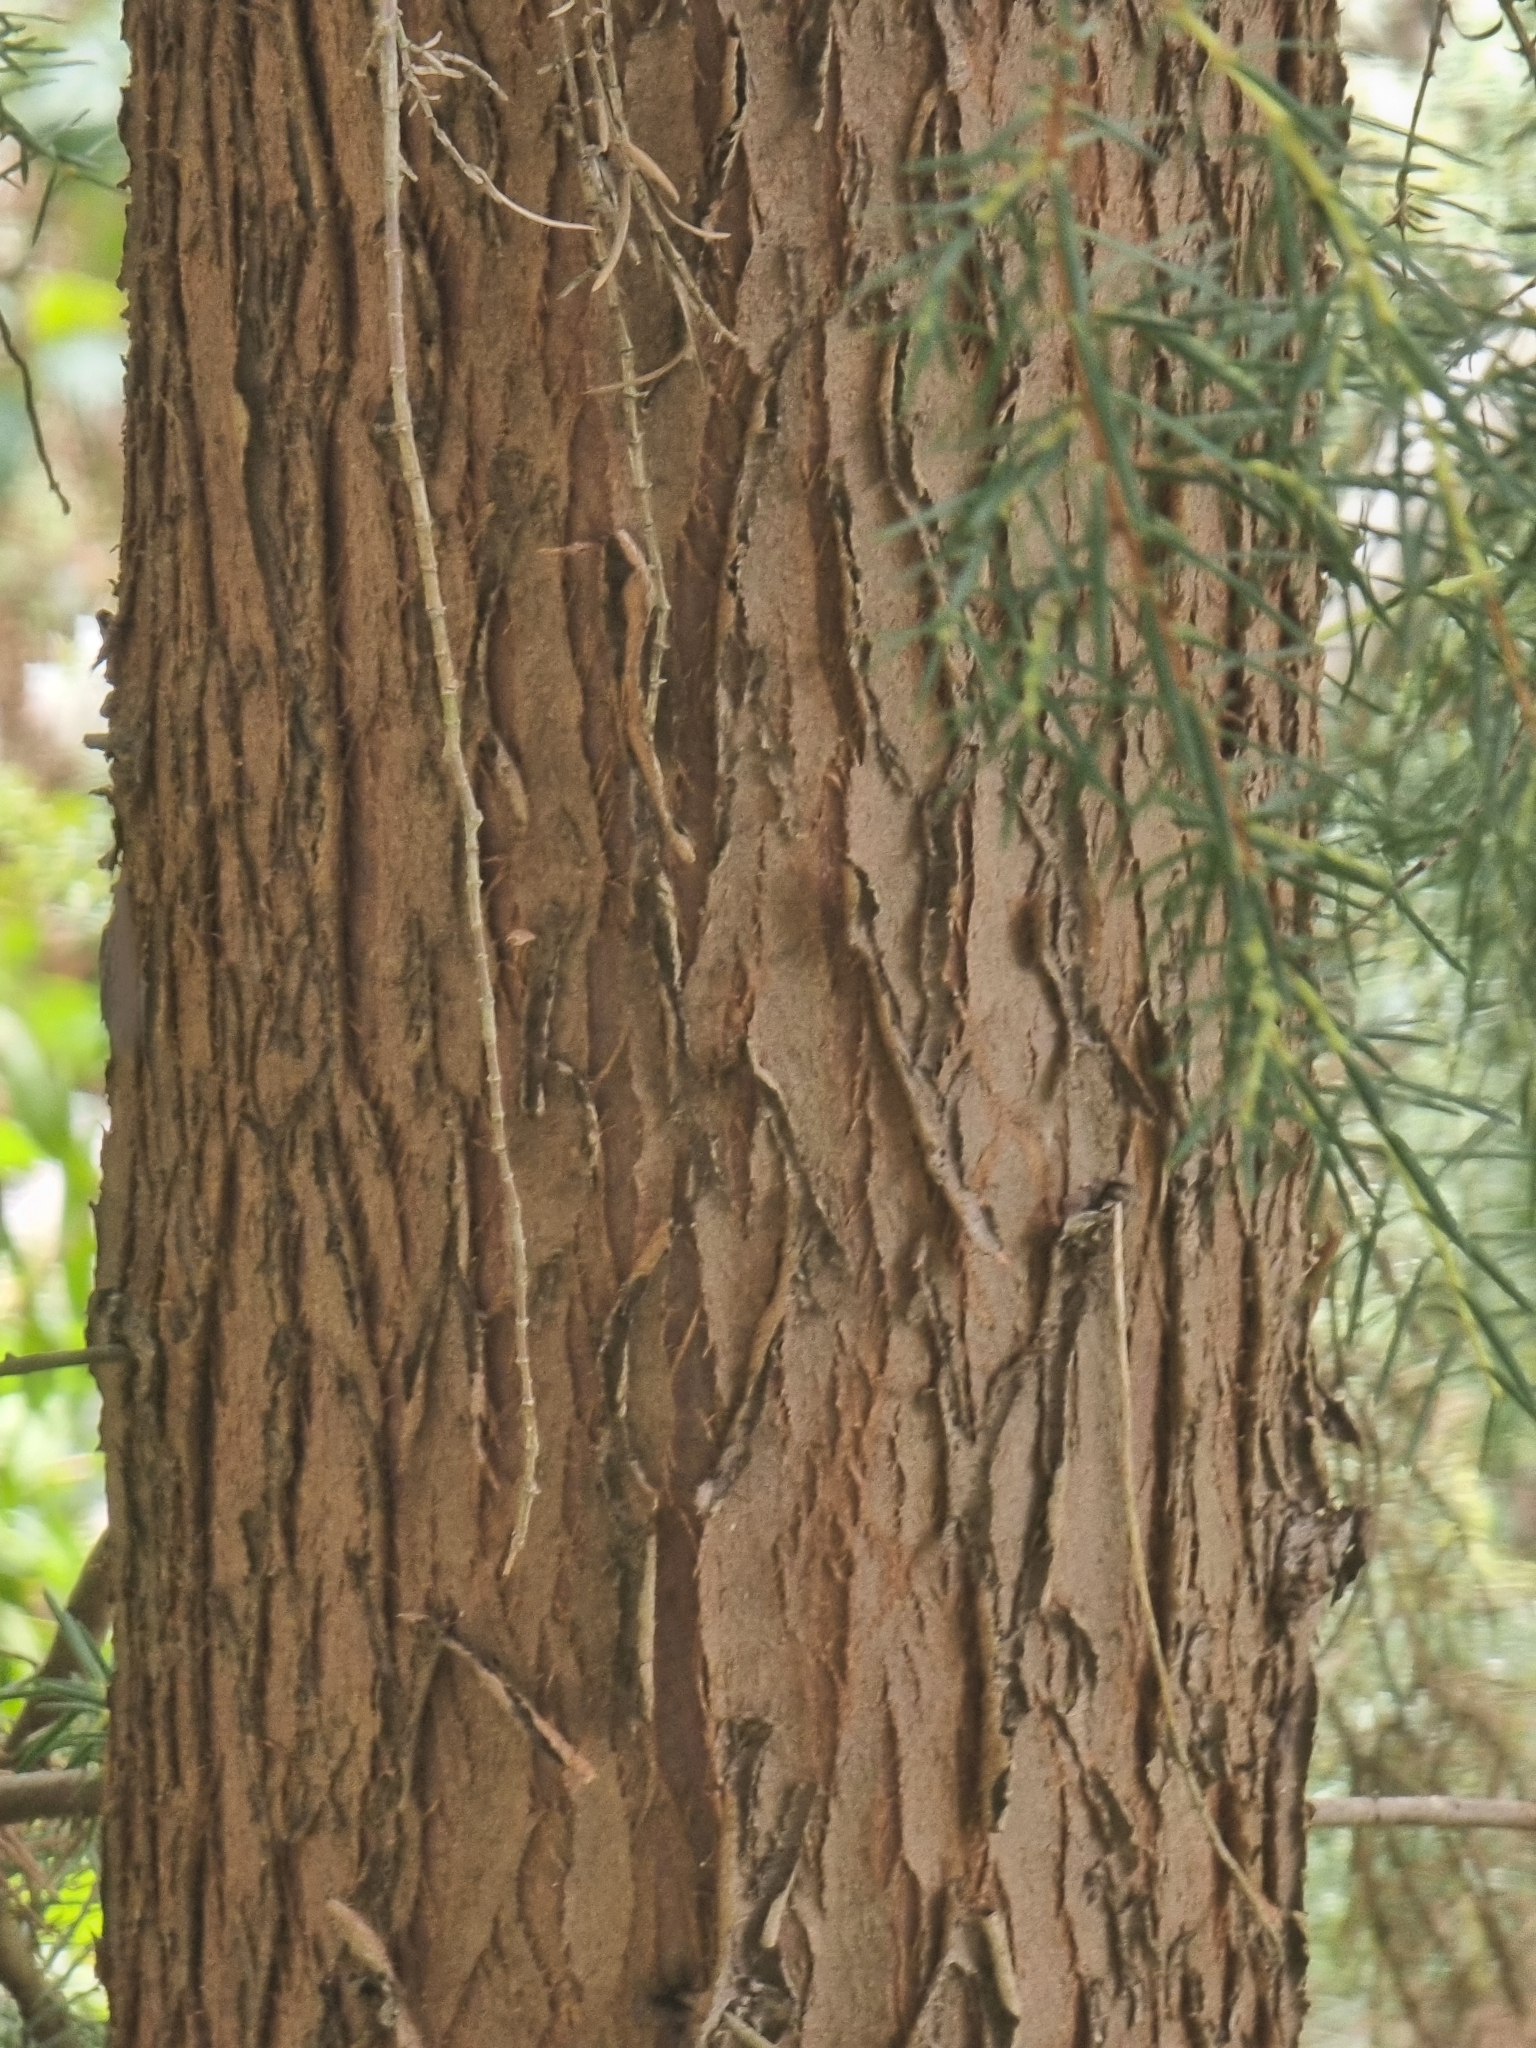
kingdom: Plantae
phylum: Tracheophyta
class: Pinopsida
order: Pinales
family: Cupressaceae
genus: Juniperus
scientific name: Juniperus cedrus
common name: Canary islands juniper
